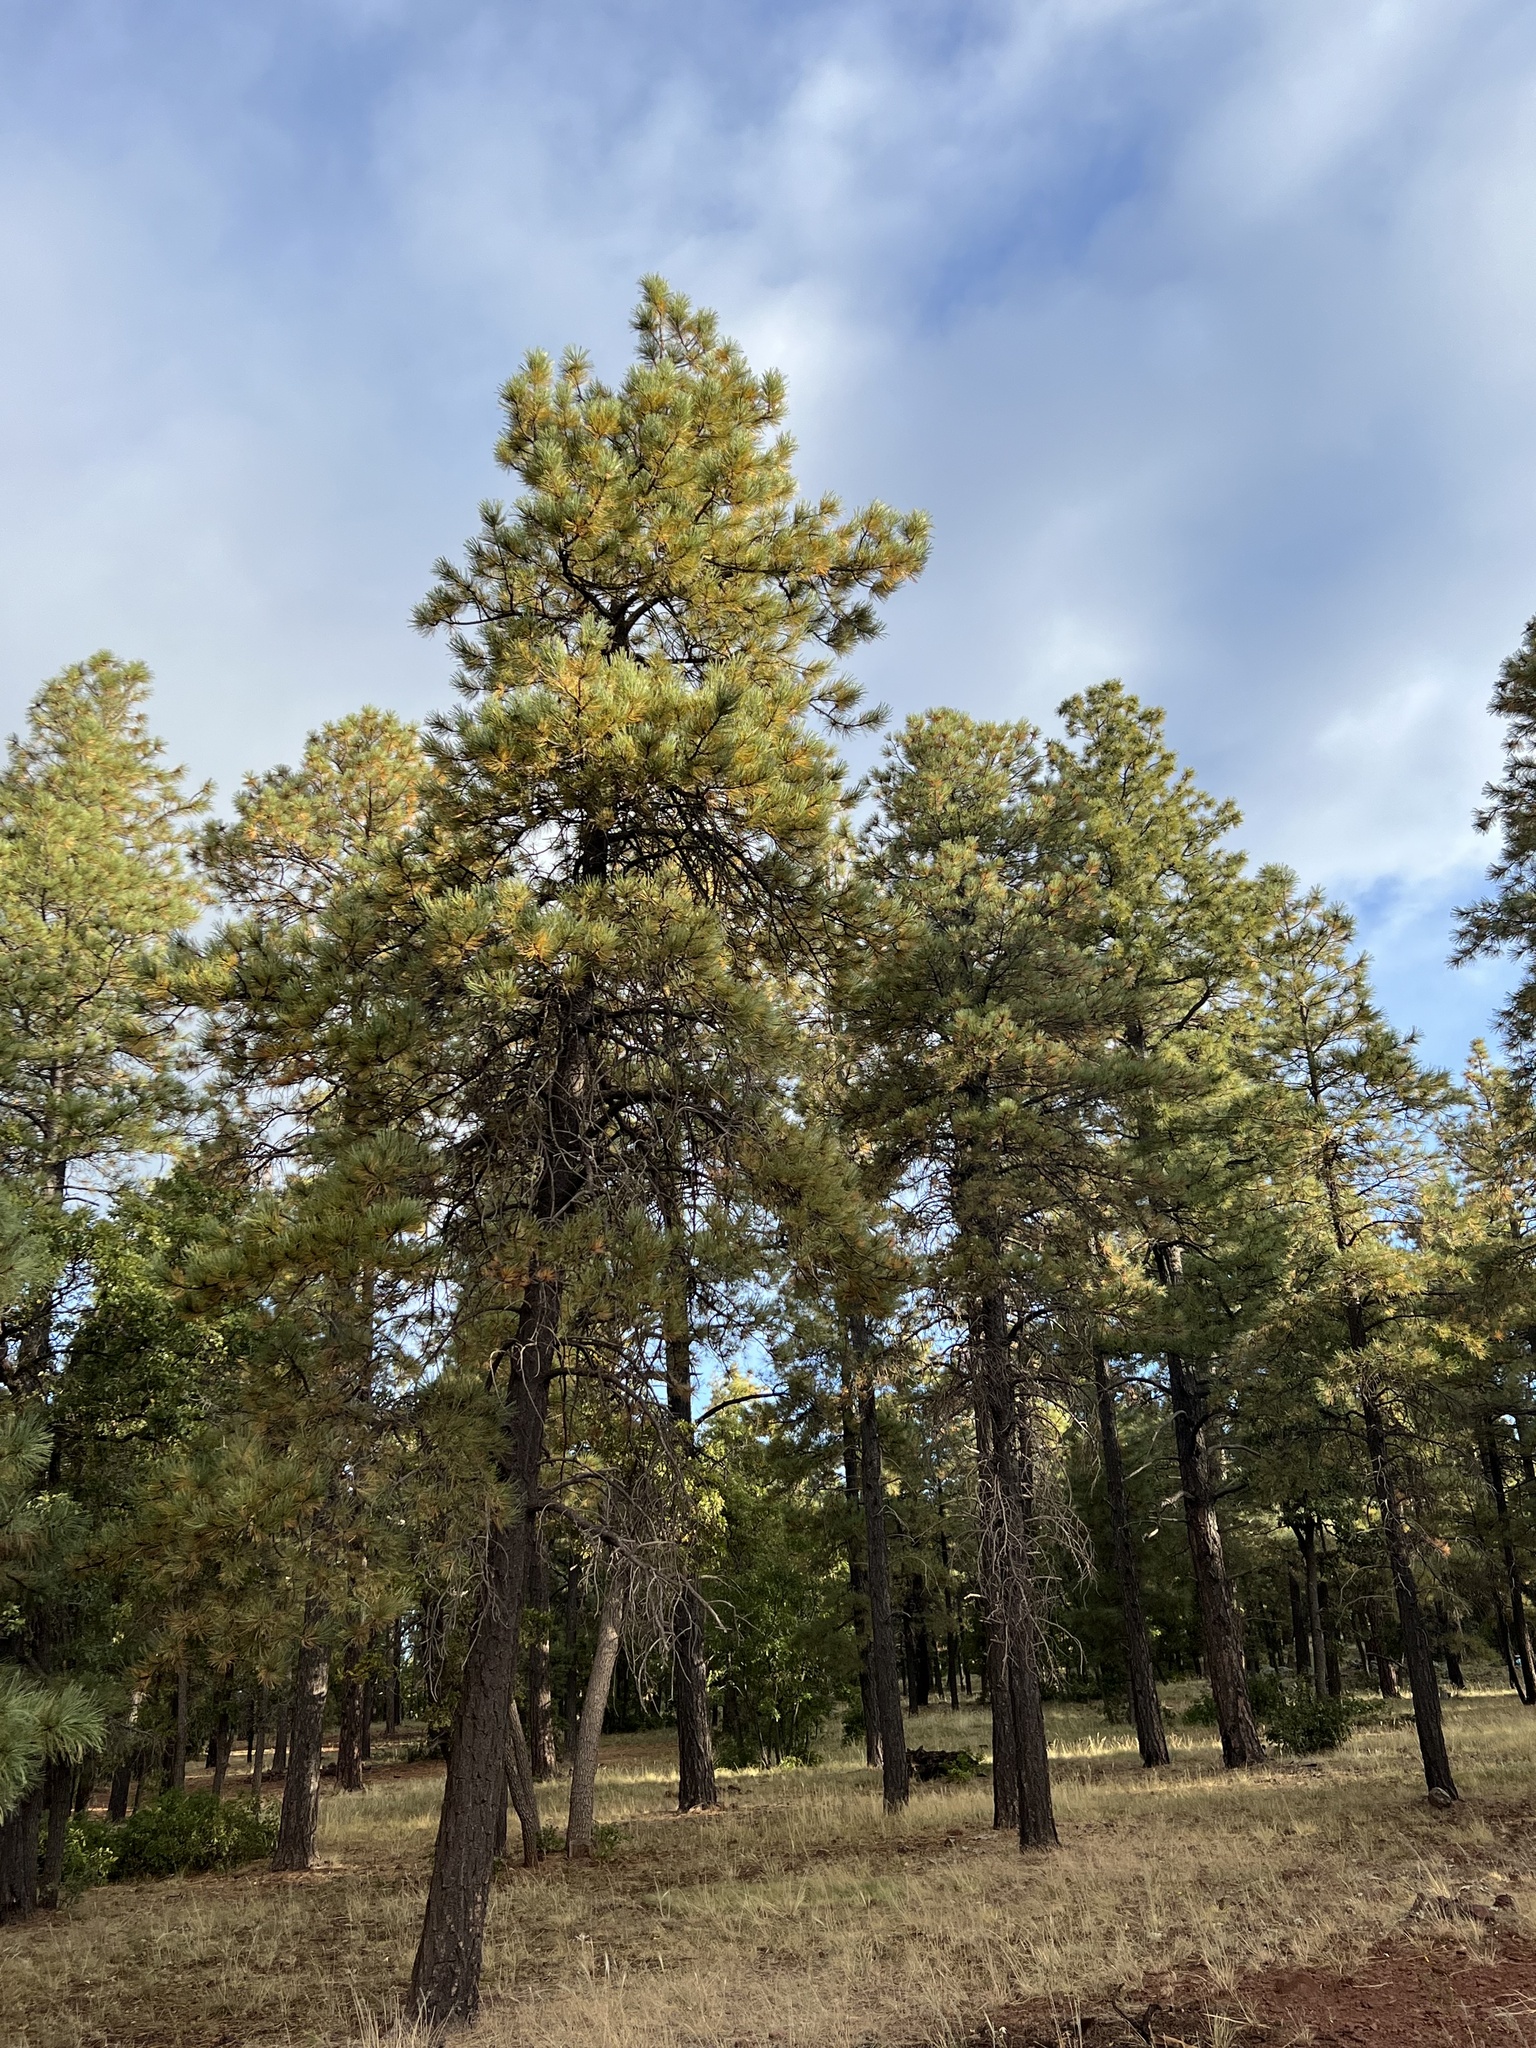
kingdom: Plantae
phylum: Tracheophyta
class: Pinopsida
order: Pinales
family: Pinaceae
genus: Pinus
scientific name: Pinus ponderosa
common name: Western yellow-pine
